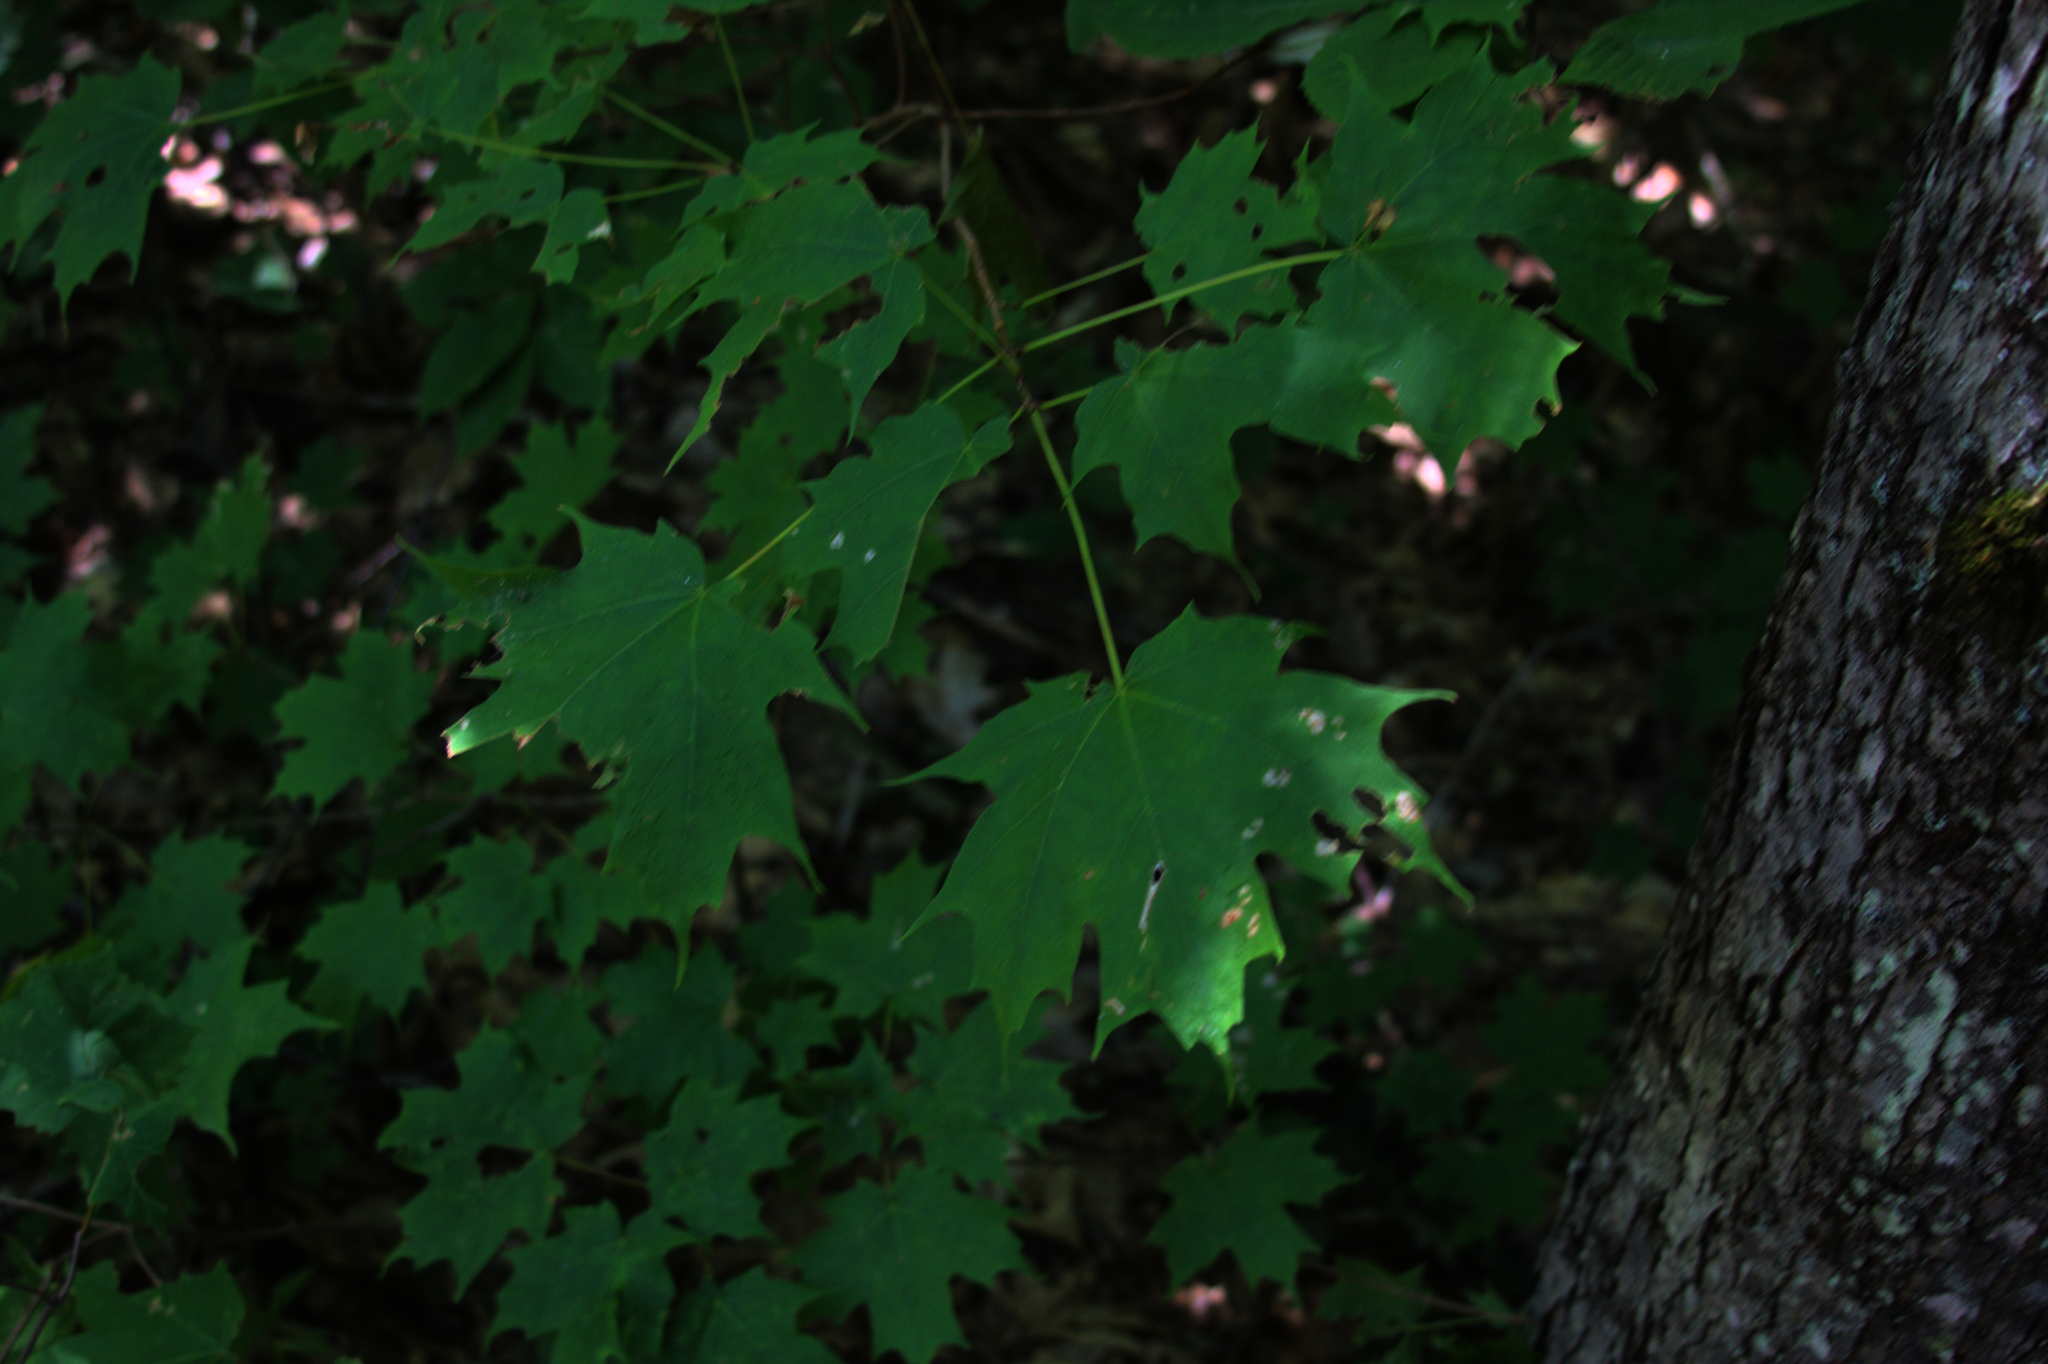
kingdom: Plantae
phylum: Tracheophyta
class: Magnoliopsida
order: Sapindales
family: Sapindaceae
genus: Acer
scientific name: Acer saccharum
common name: Sugar maple
